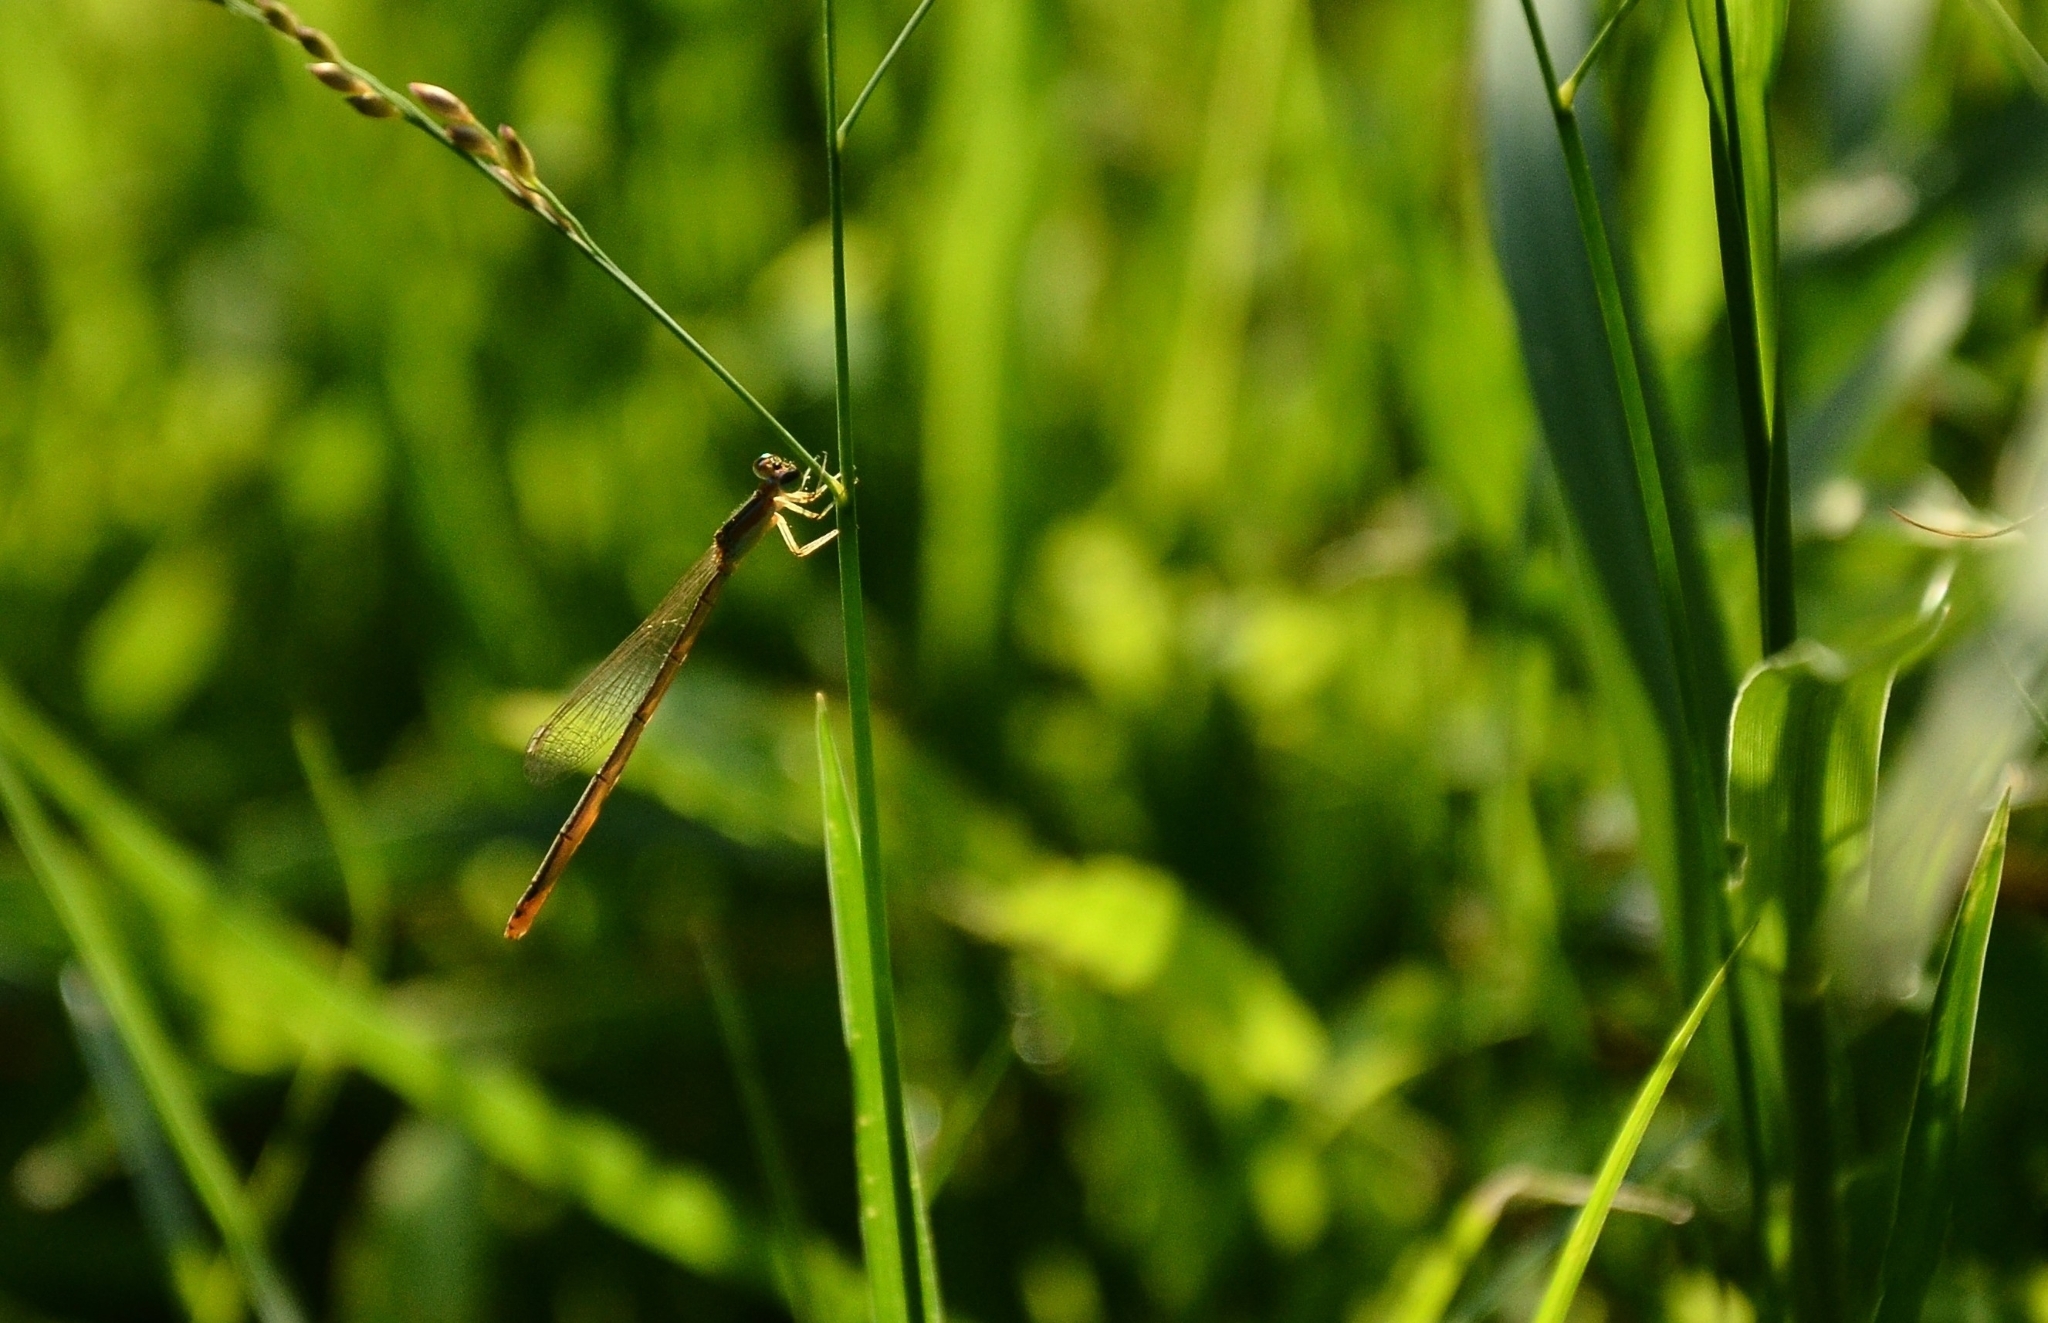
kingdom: Animalia
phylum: Arthropoda
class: Insecta
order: Odonata
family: Coenagrionidae
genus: Agriocnemis
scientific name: Agriocnemis pygmaea
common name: Pygmy wisp
